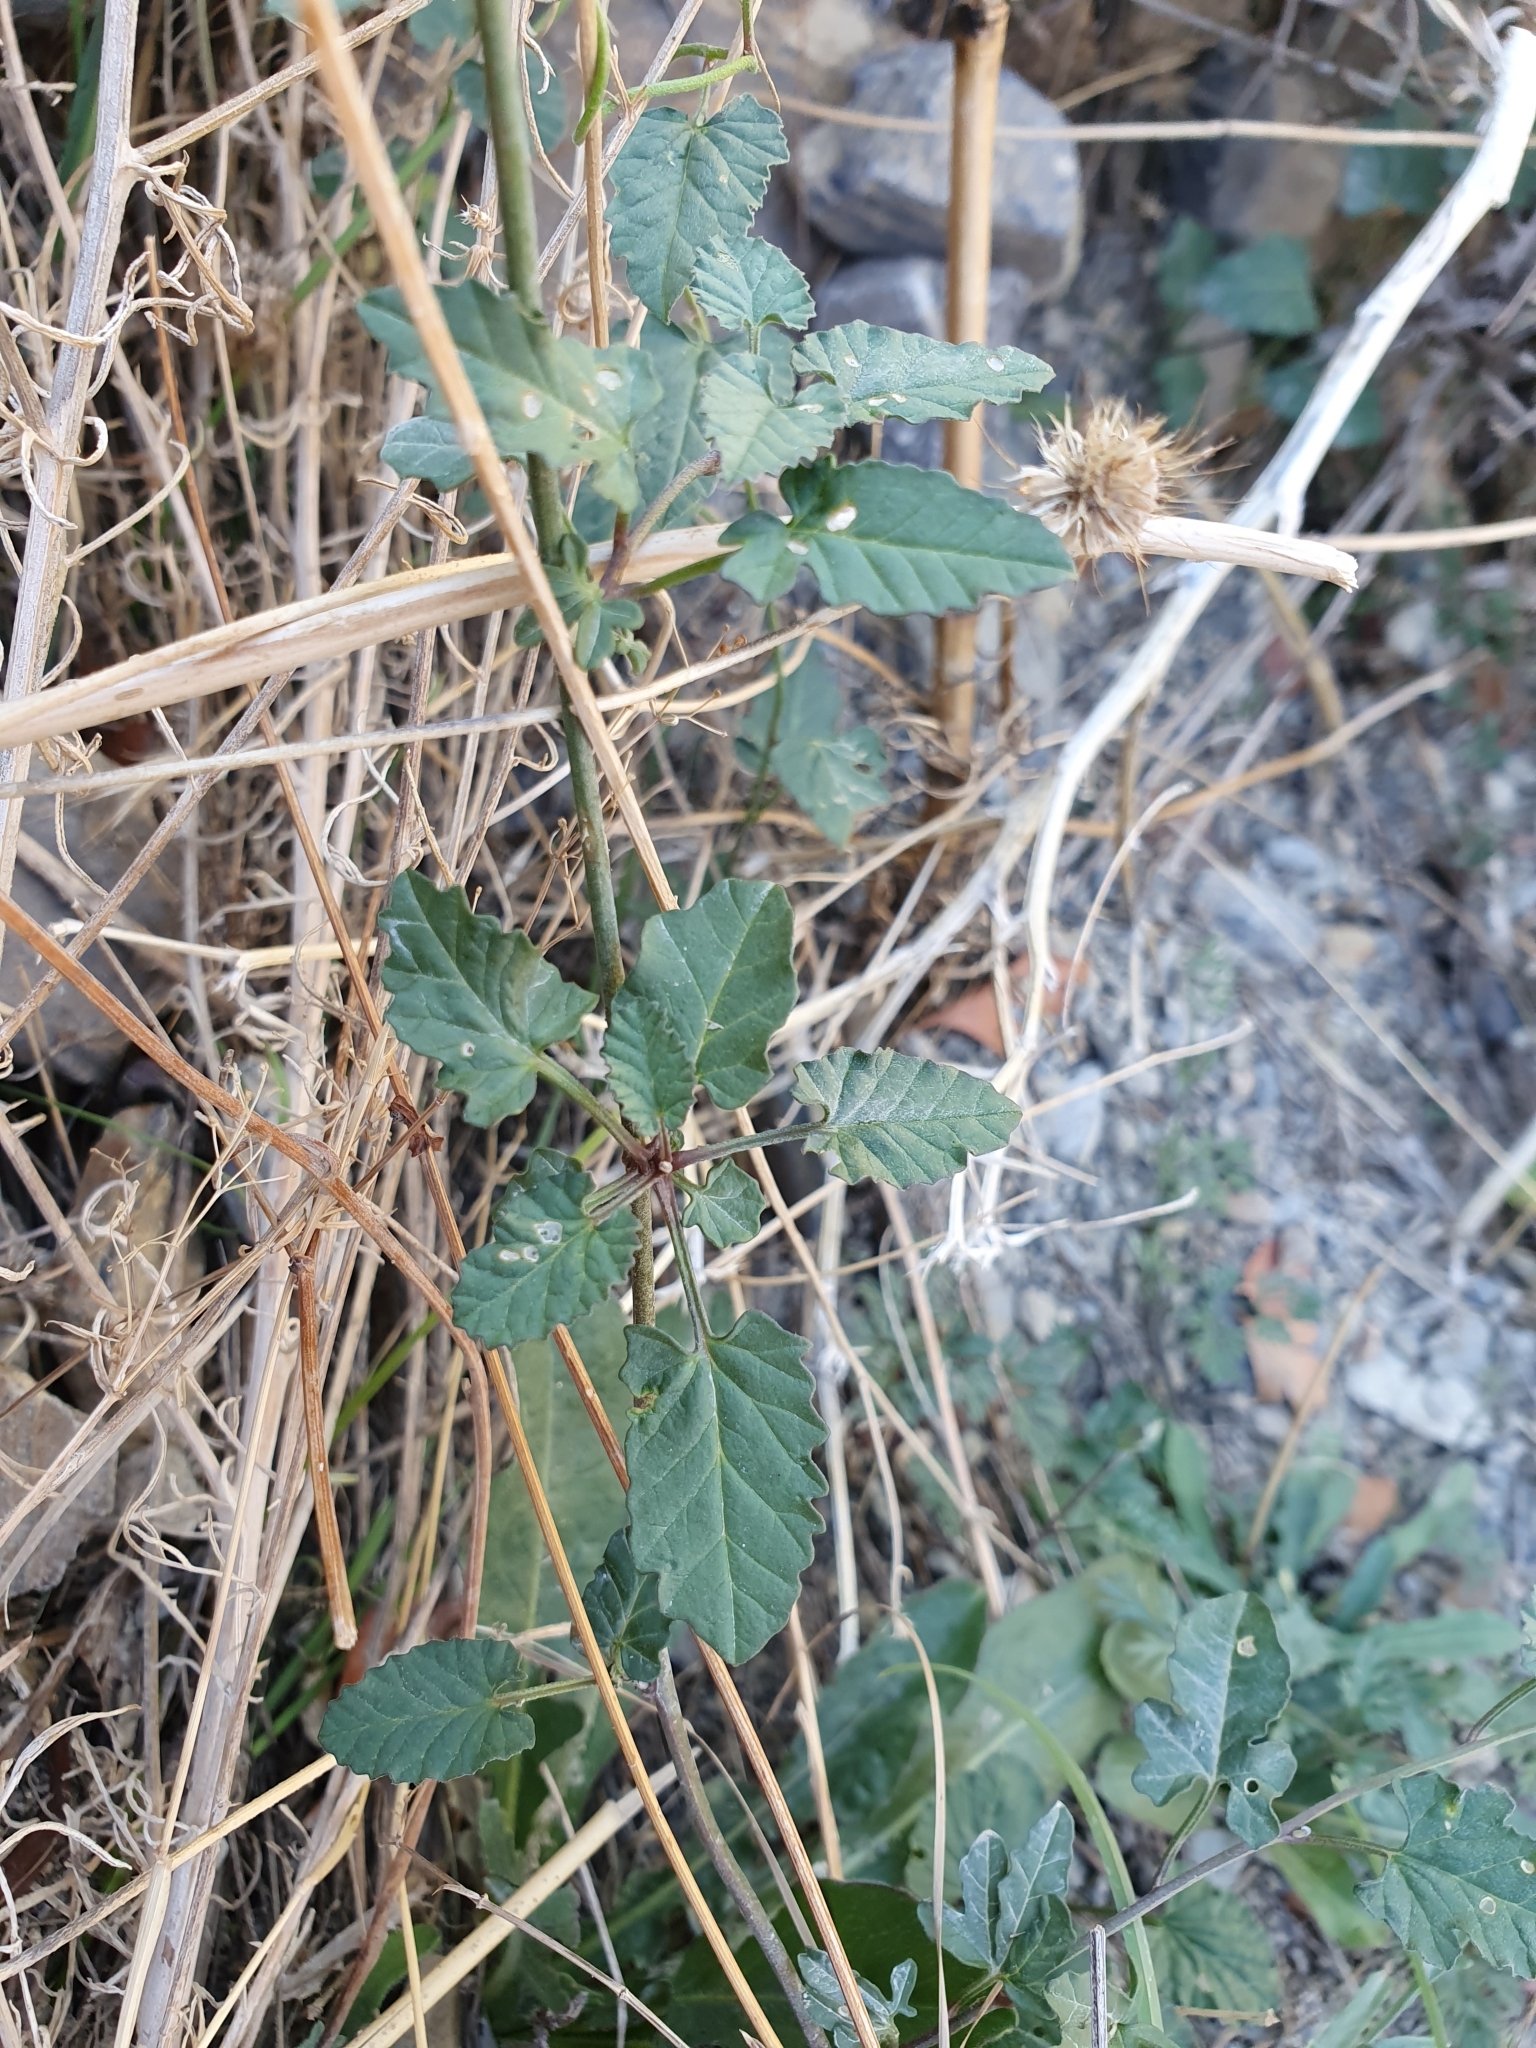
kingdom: Plantae
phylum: Tracheophyta
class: Magnoliopsida
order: Solanales
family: Convolvulaceae
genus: Convolvulus
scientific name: Convolvulus althaeoides
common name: Mallow bindweed
